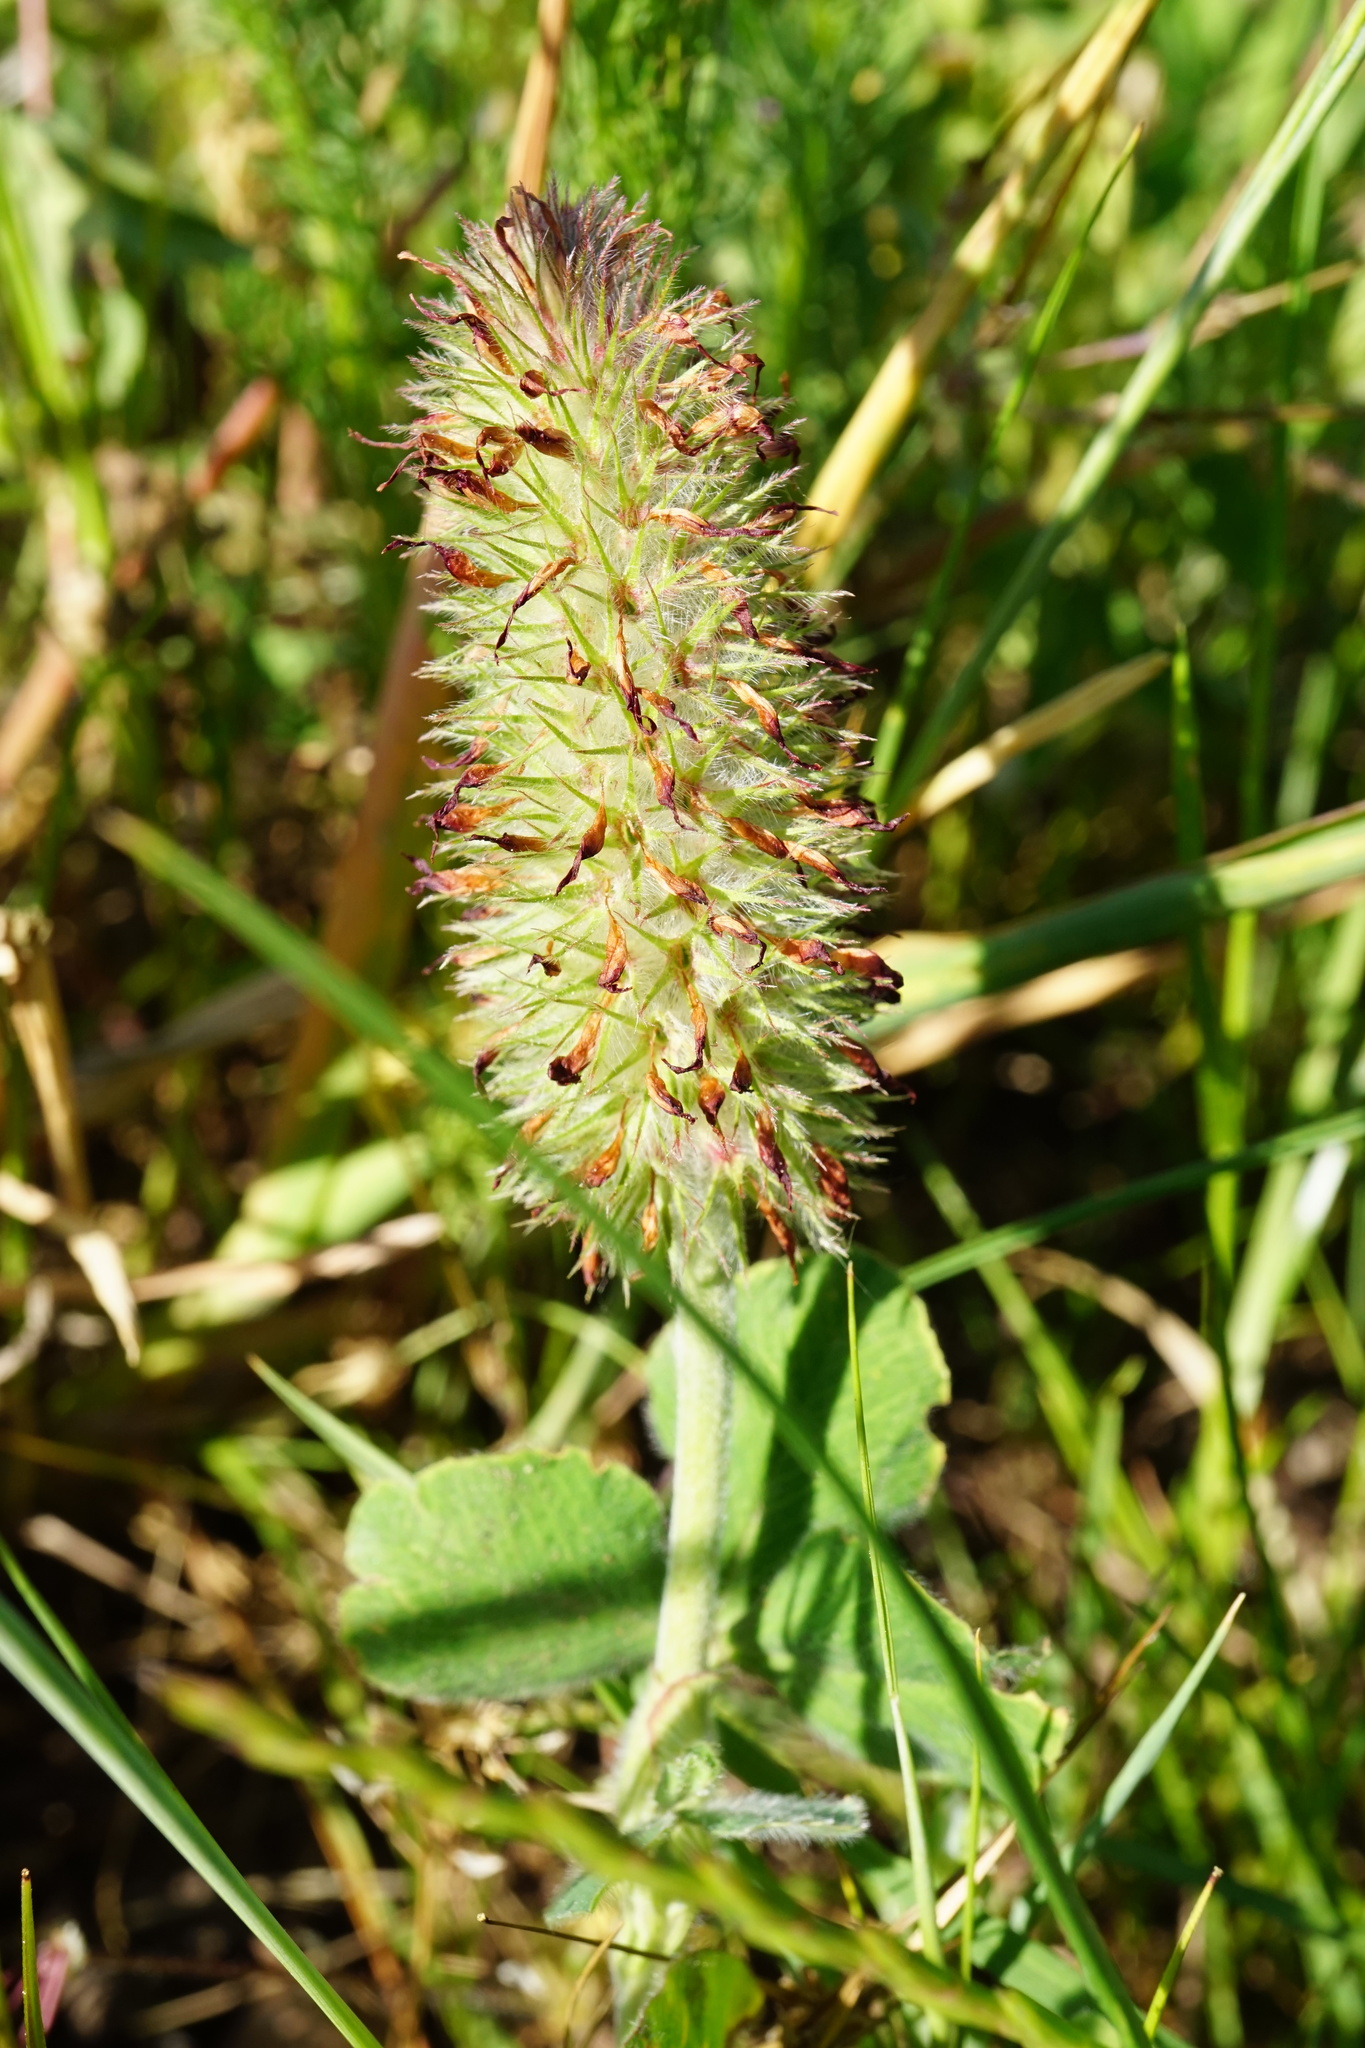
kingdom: Plantae
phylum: Tracheophyta
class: Magnoliopsida
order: Fabales
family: Fabaceae
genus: Trifolium
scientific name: Trifolium incarnatum
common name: Crimson clover
